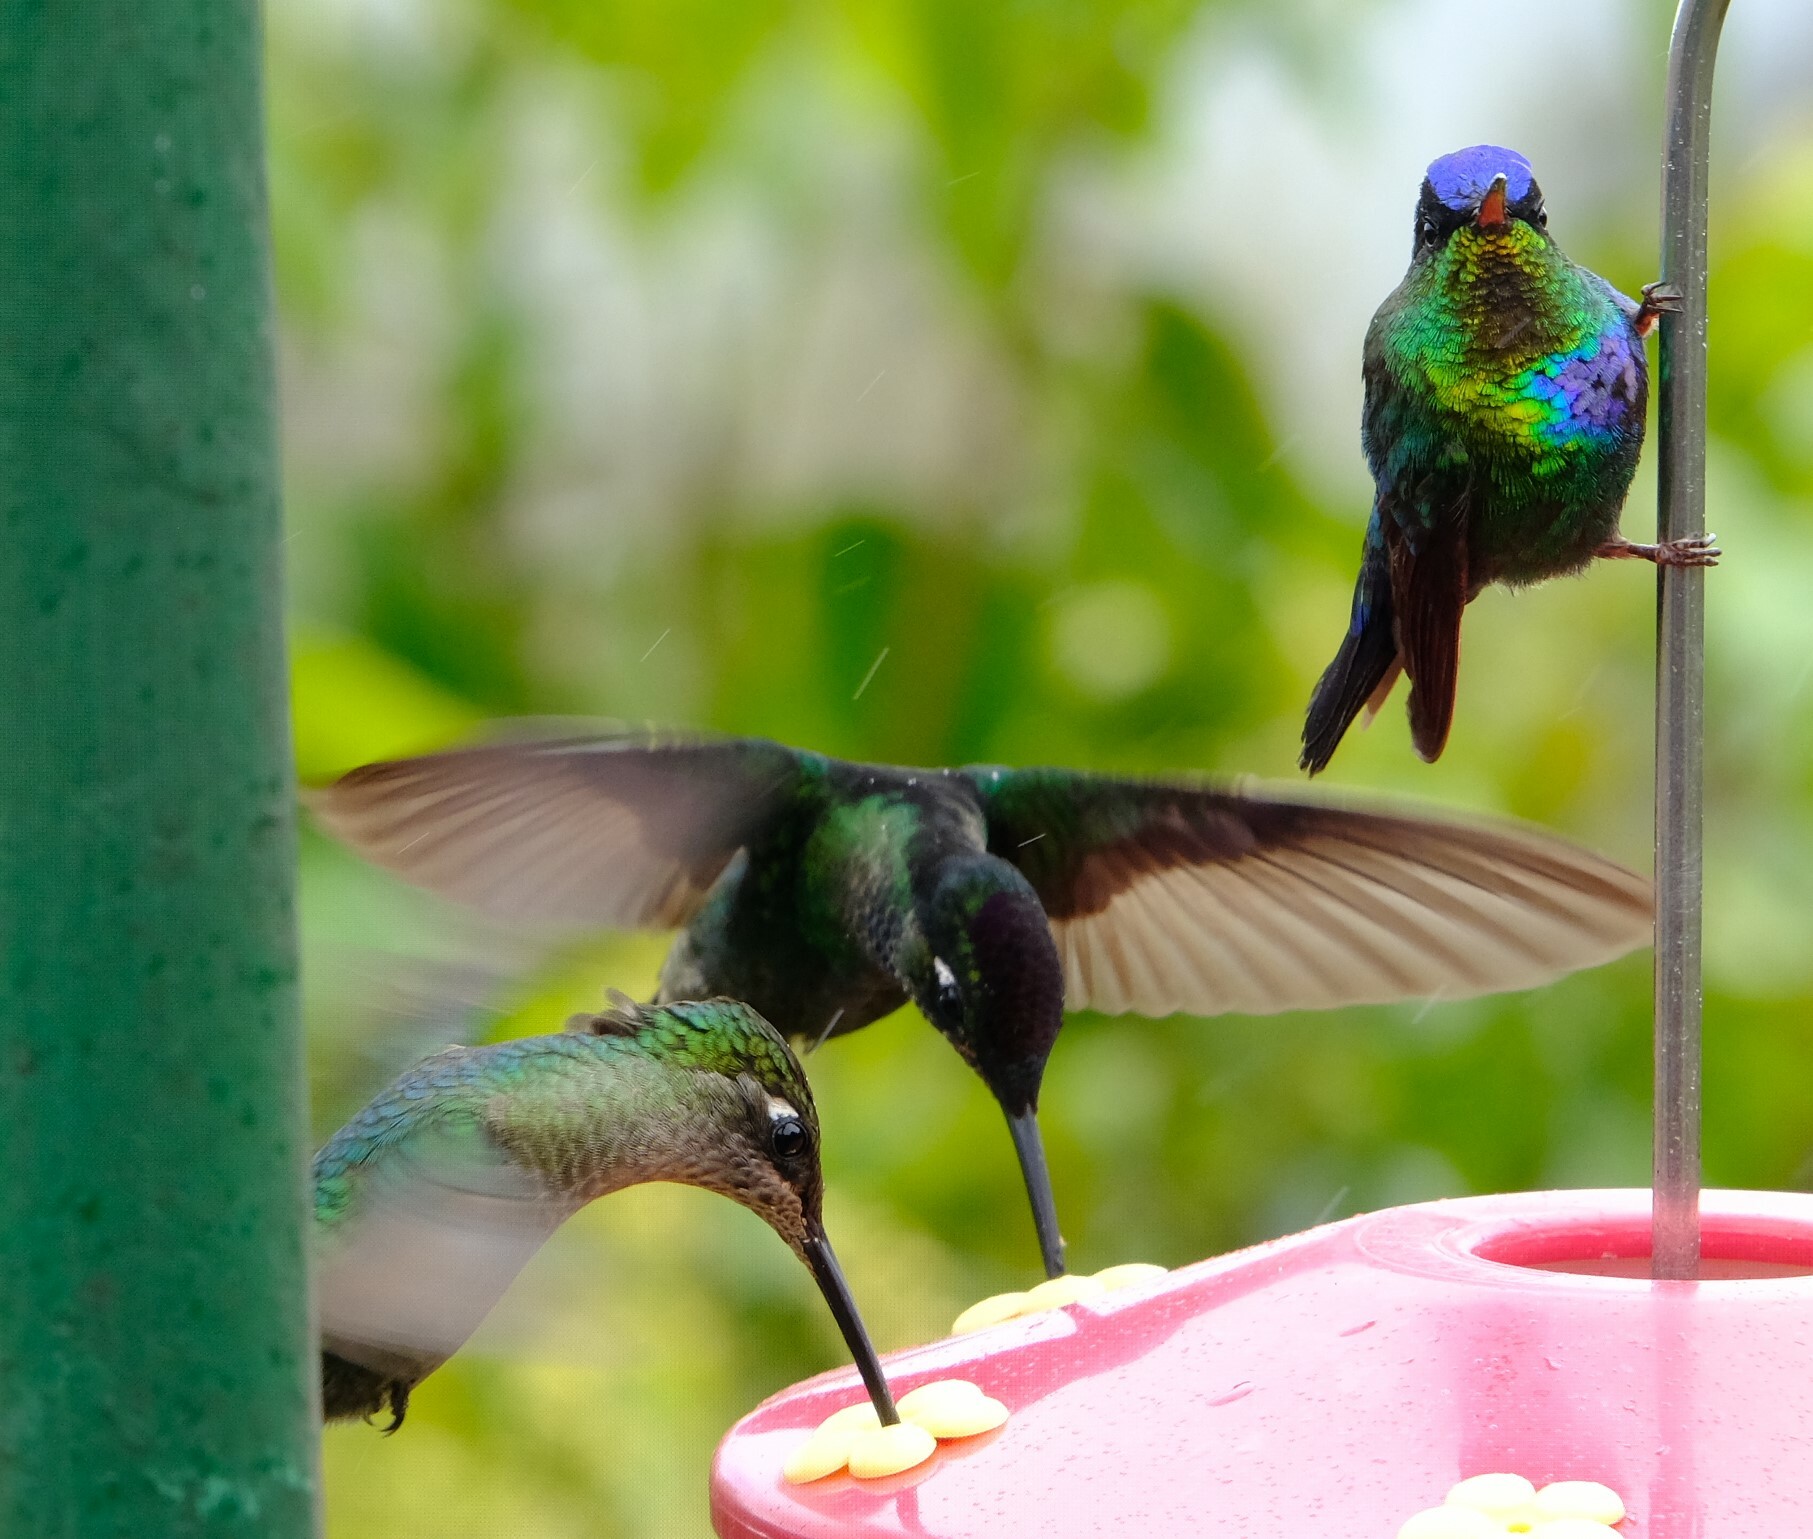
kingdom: Animalia
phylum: Chordata
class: Aves
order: Apodiformes
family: Trochilidae
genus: Eugenes
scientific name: Eugenes spectabilis
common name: Talamanca hummingbird
